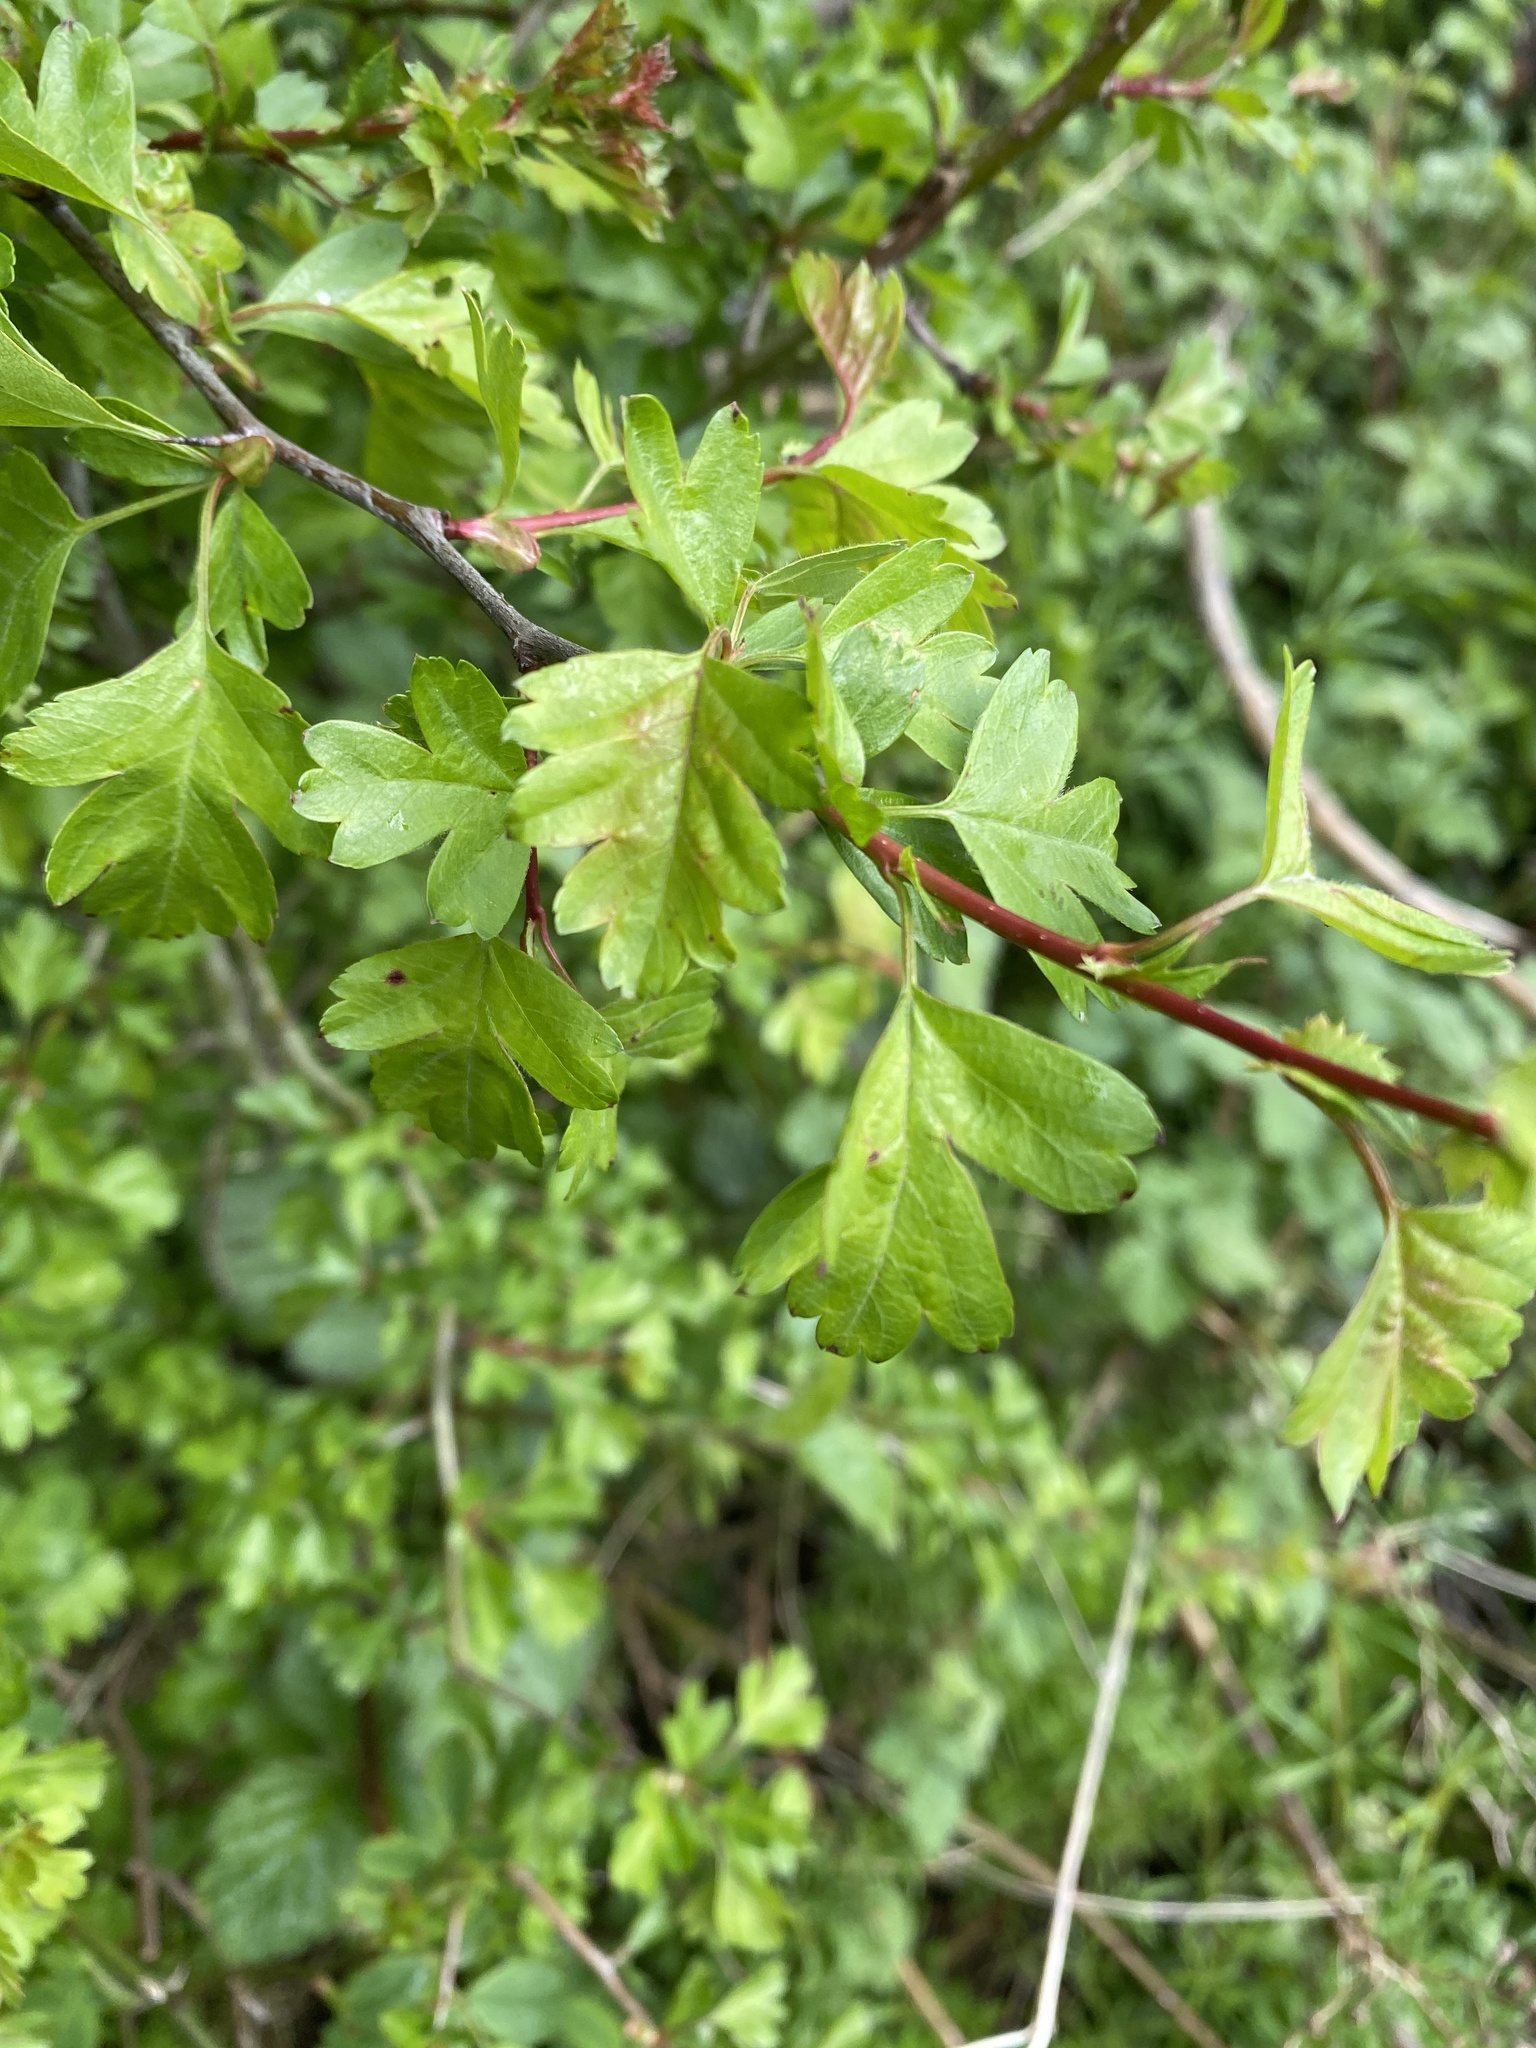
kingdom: Plantae
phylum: Tracheophyta
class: Magnoliopsida
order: Rosales
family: Rosaceae
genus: Crataegus
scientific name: Crataegus monogyna
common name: Hawthorn
